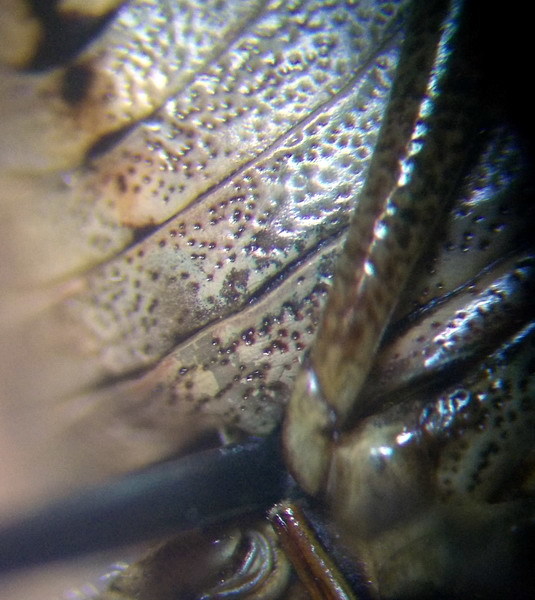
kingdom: Animalia
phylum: Arthropoda
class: Insecta
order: Hemiptera
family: Pentatomidae
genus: Picromerus
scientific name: Picromerus bidens
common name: Spiked shieldbug
